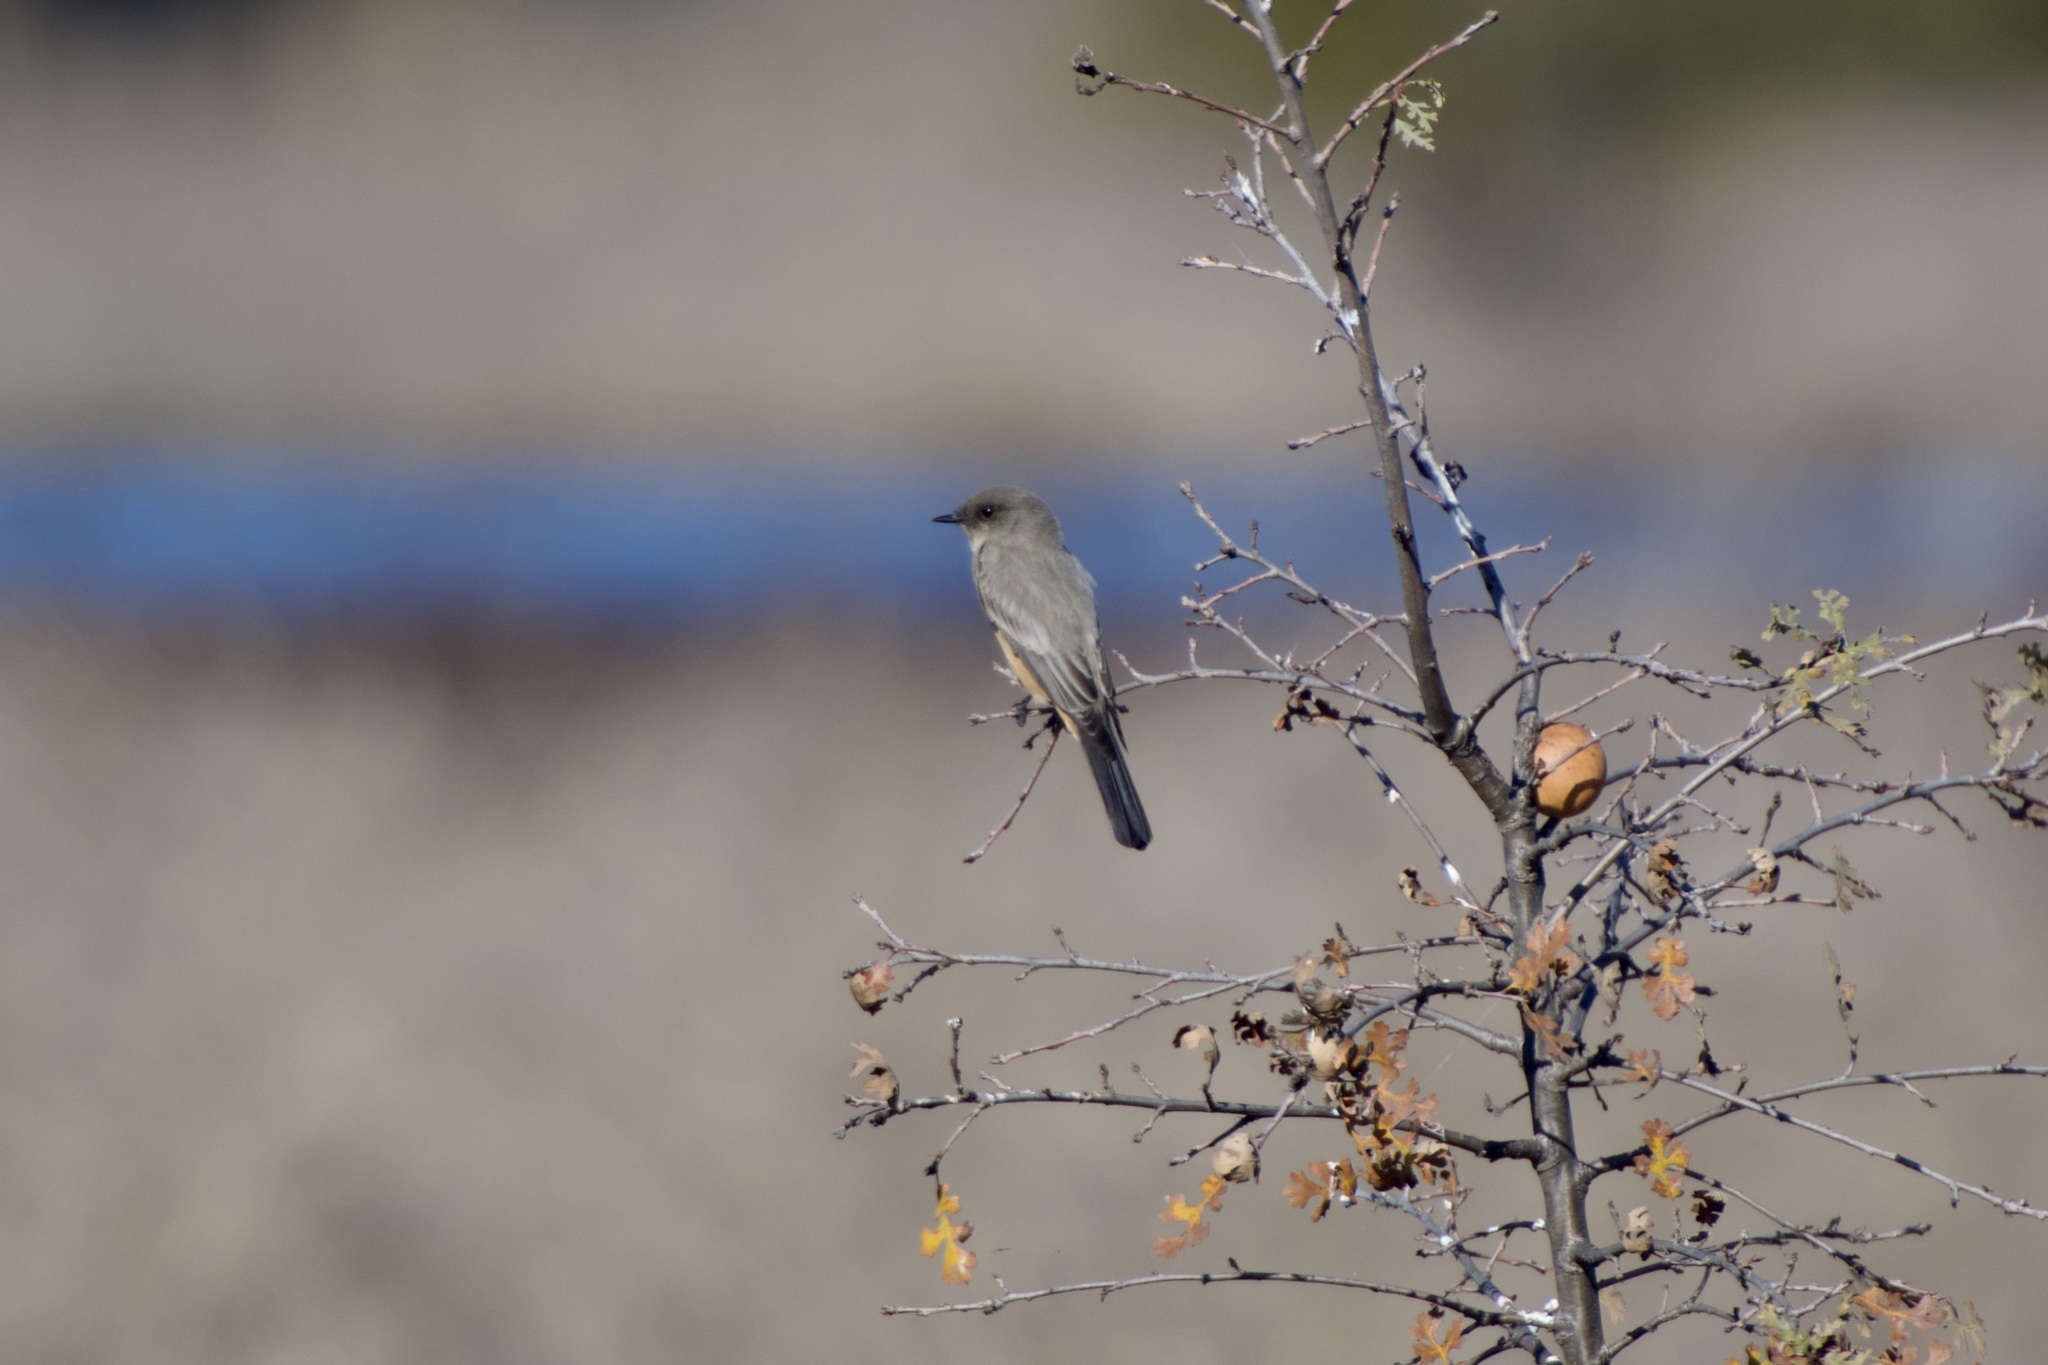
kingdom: Animalia
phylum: Chordata
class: Aves
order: Passeriformes
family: Tyrannidae
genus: Sayornis
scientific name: Sayornis saya
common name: Say's phoebe
